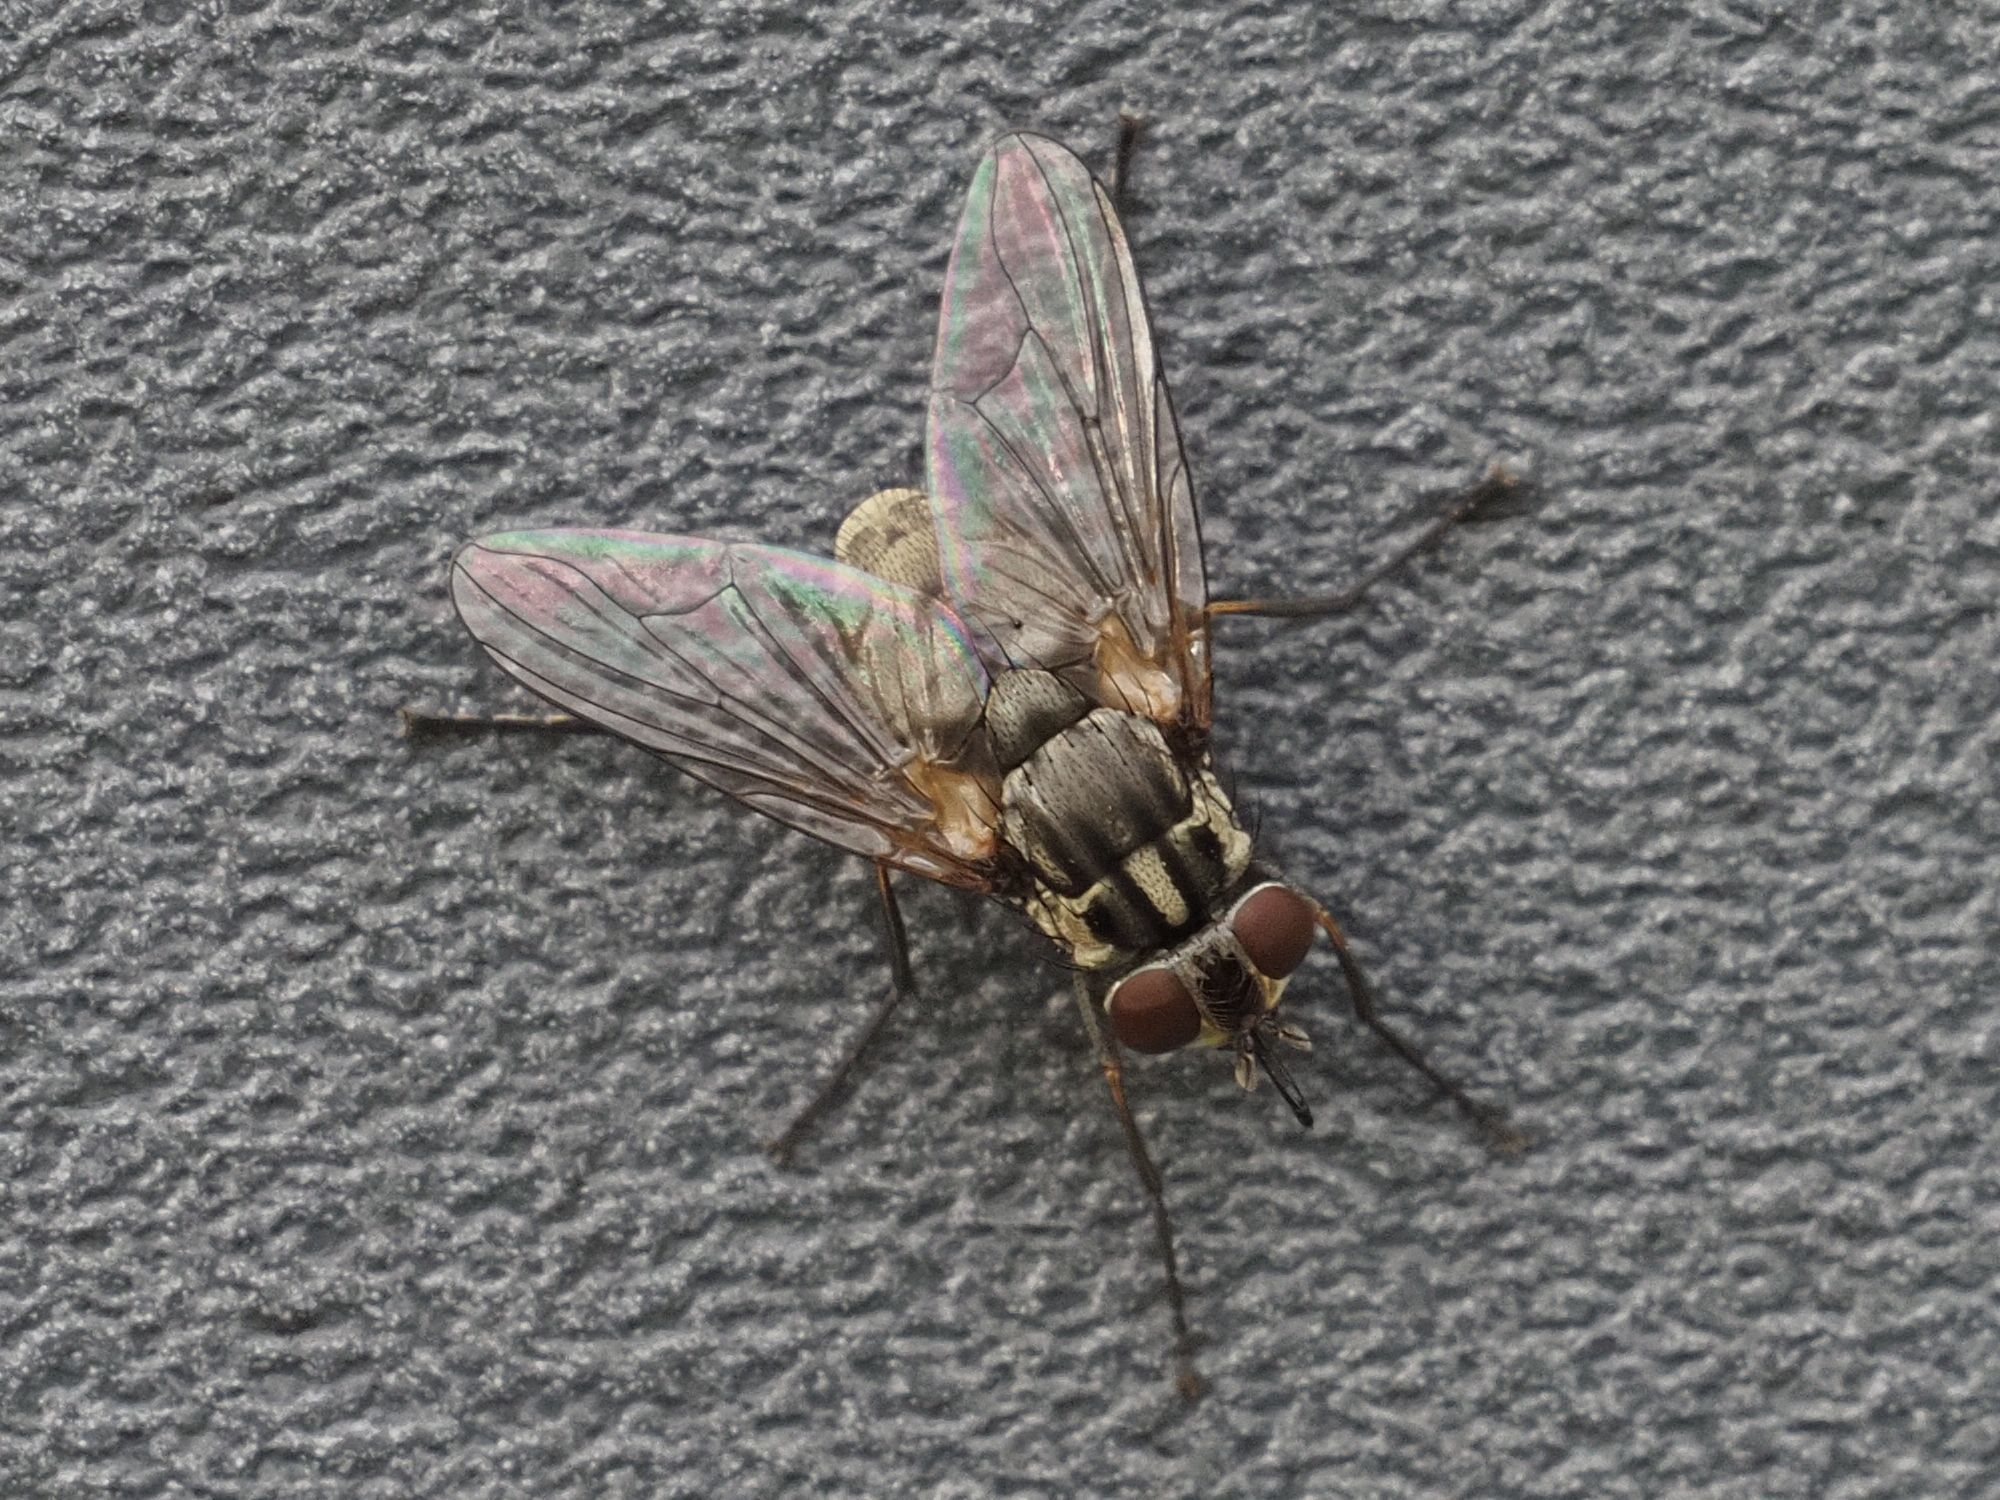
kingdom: Animalia
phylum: Arthropoda
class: Insecta
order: Diptera
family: Muscidae
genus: Stomoxys
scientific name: Stomoxys calcitrans
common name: Stable fly
